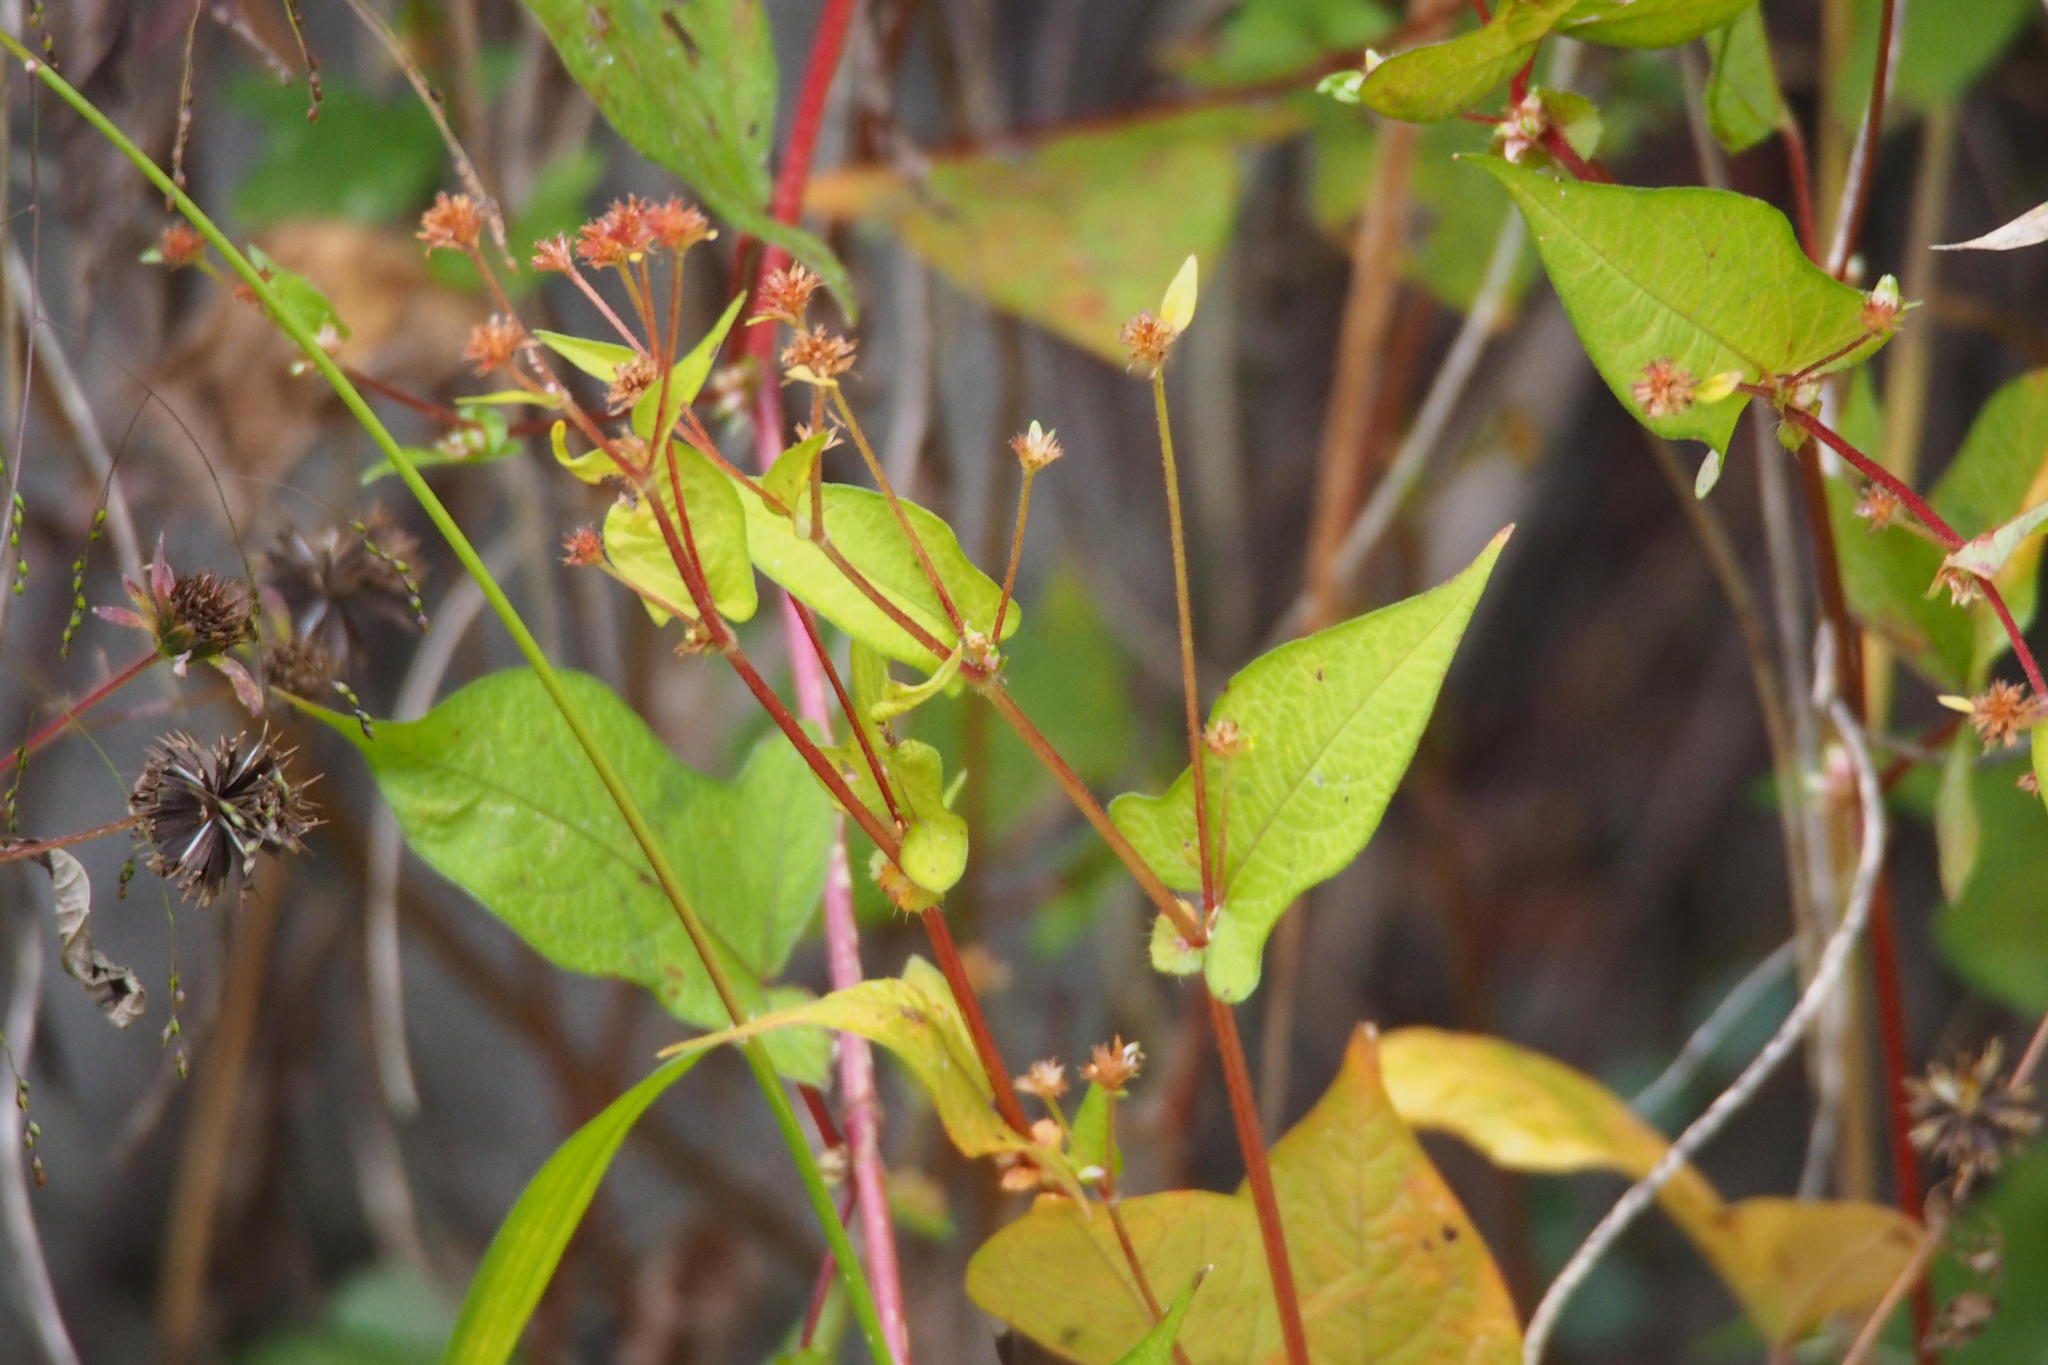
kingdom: Plantae
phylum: Tracheophyta
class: Magnoliopsida
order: Caryophyllales
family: Polygonaceae
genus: Persicaria
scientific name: Persicaria thunbergii
